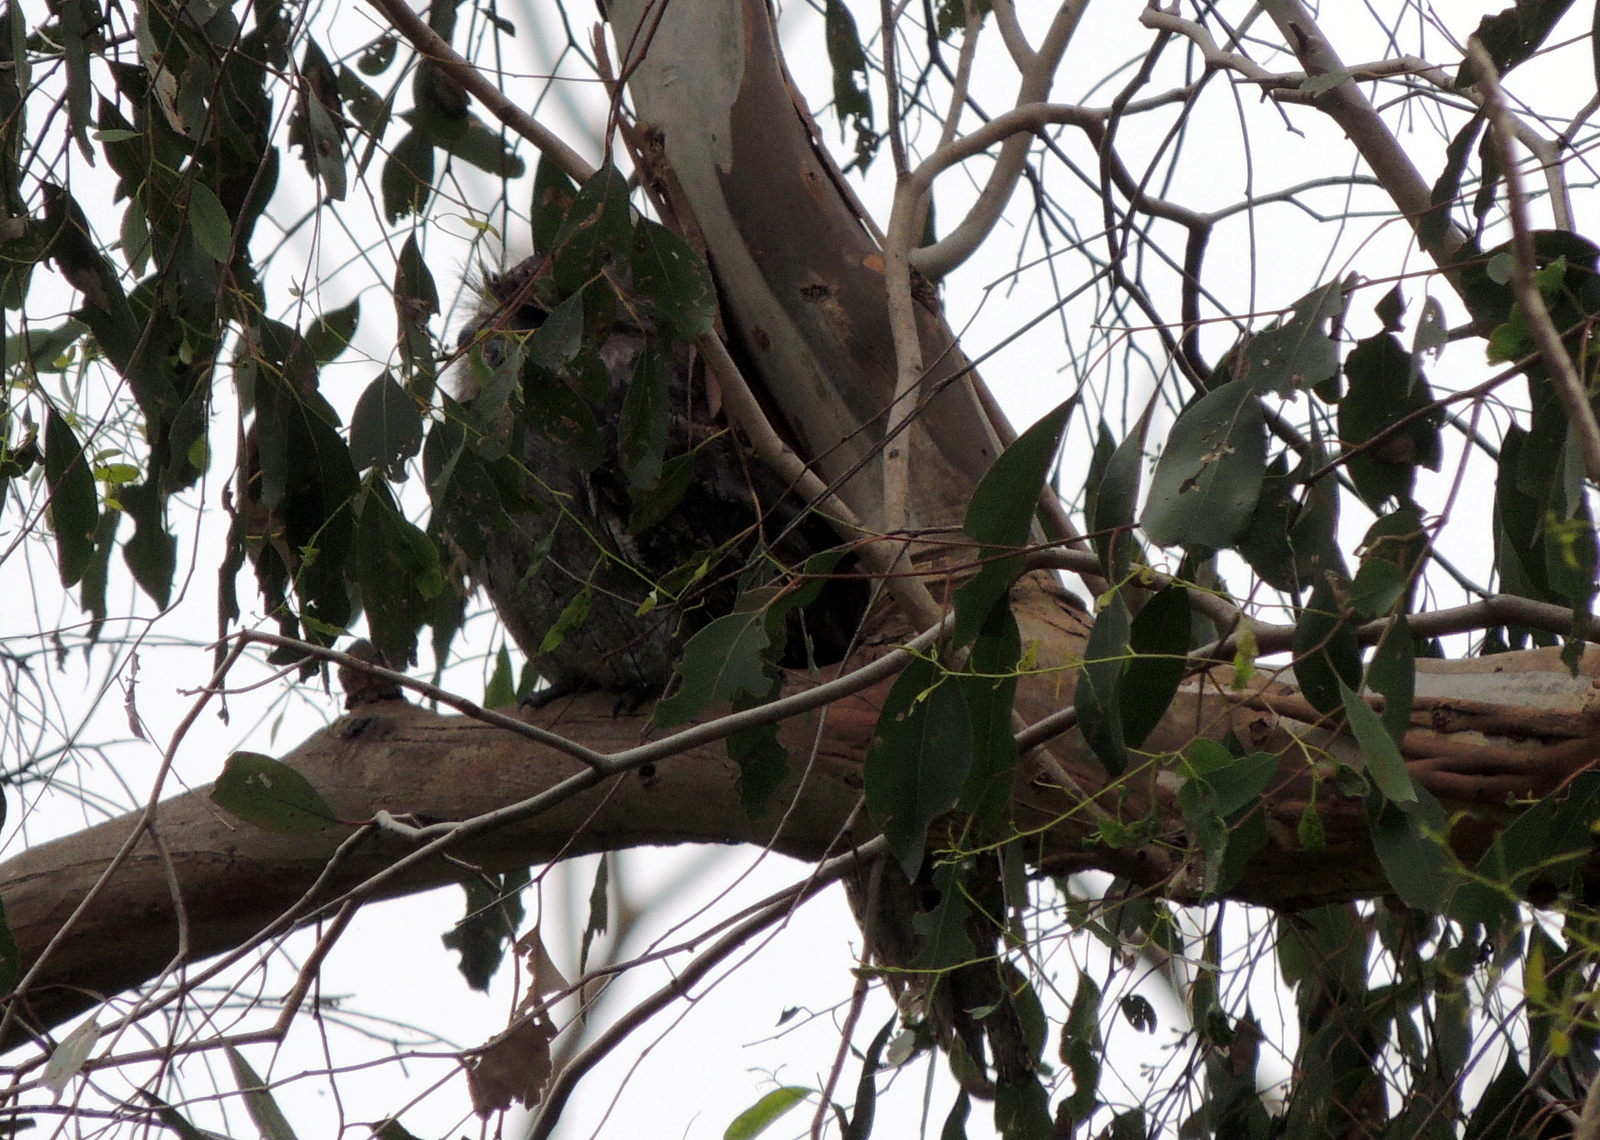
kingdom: Animalia
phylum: Chordata
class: Aves
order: Caprimulgiformes
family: Podargidae
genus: Podargus
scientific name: Podargus strigoides
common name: Tawny frogmouth
